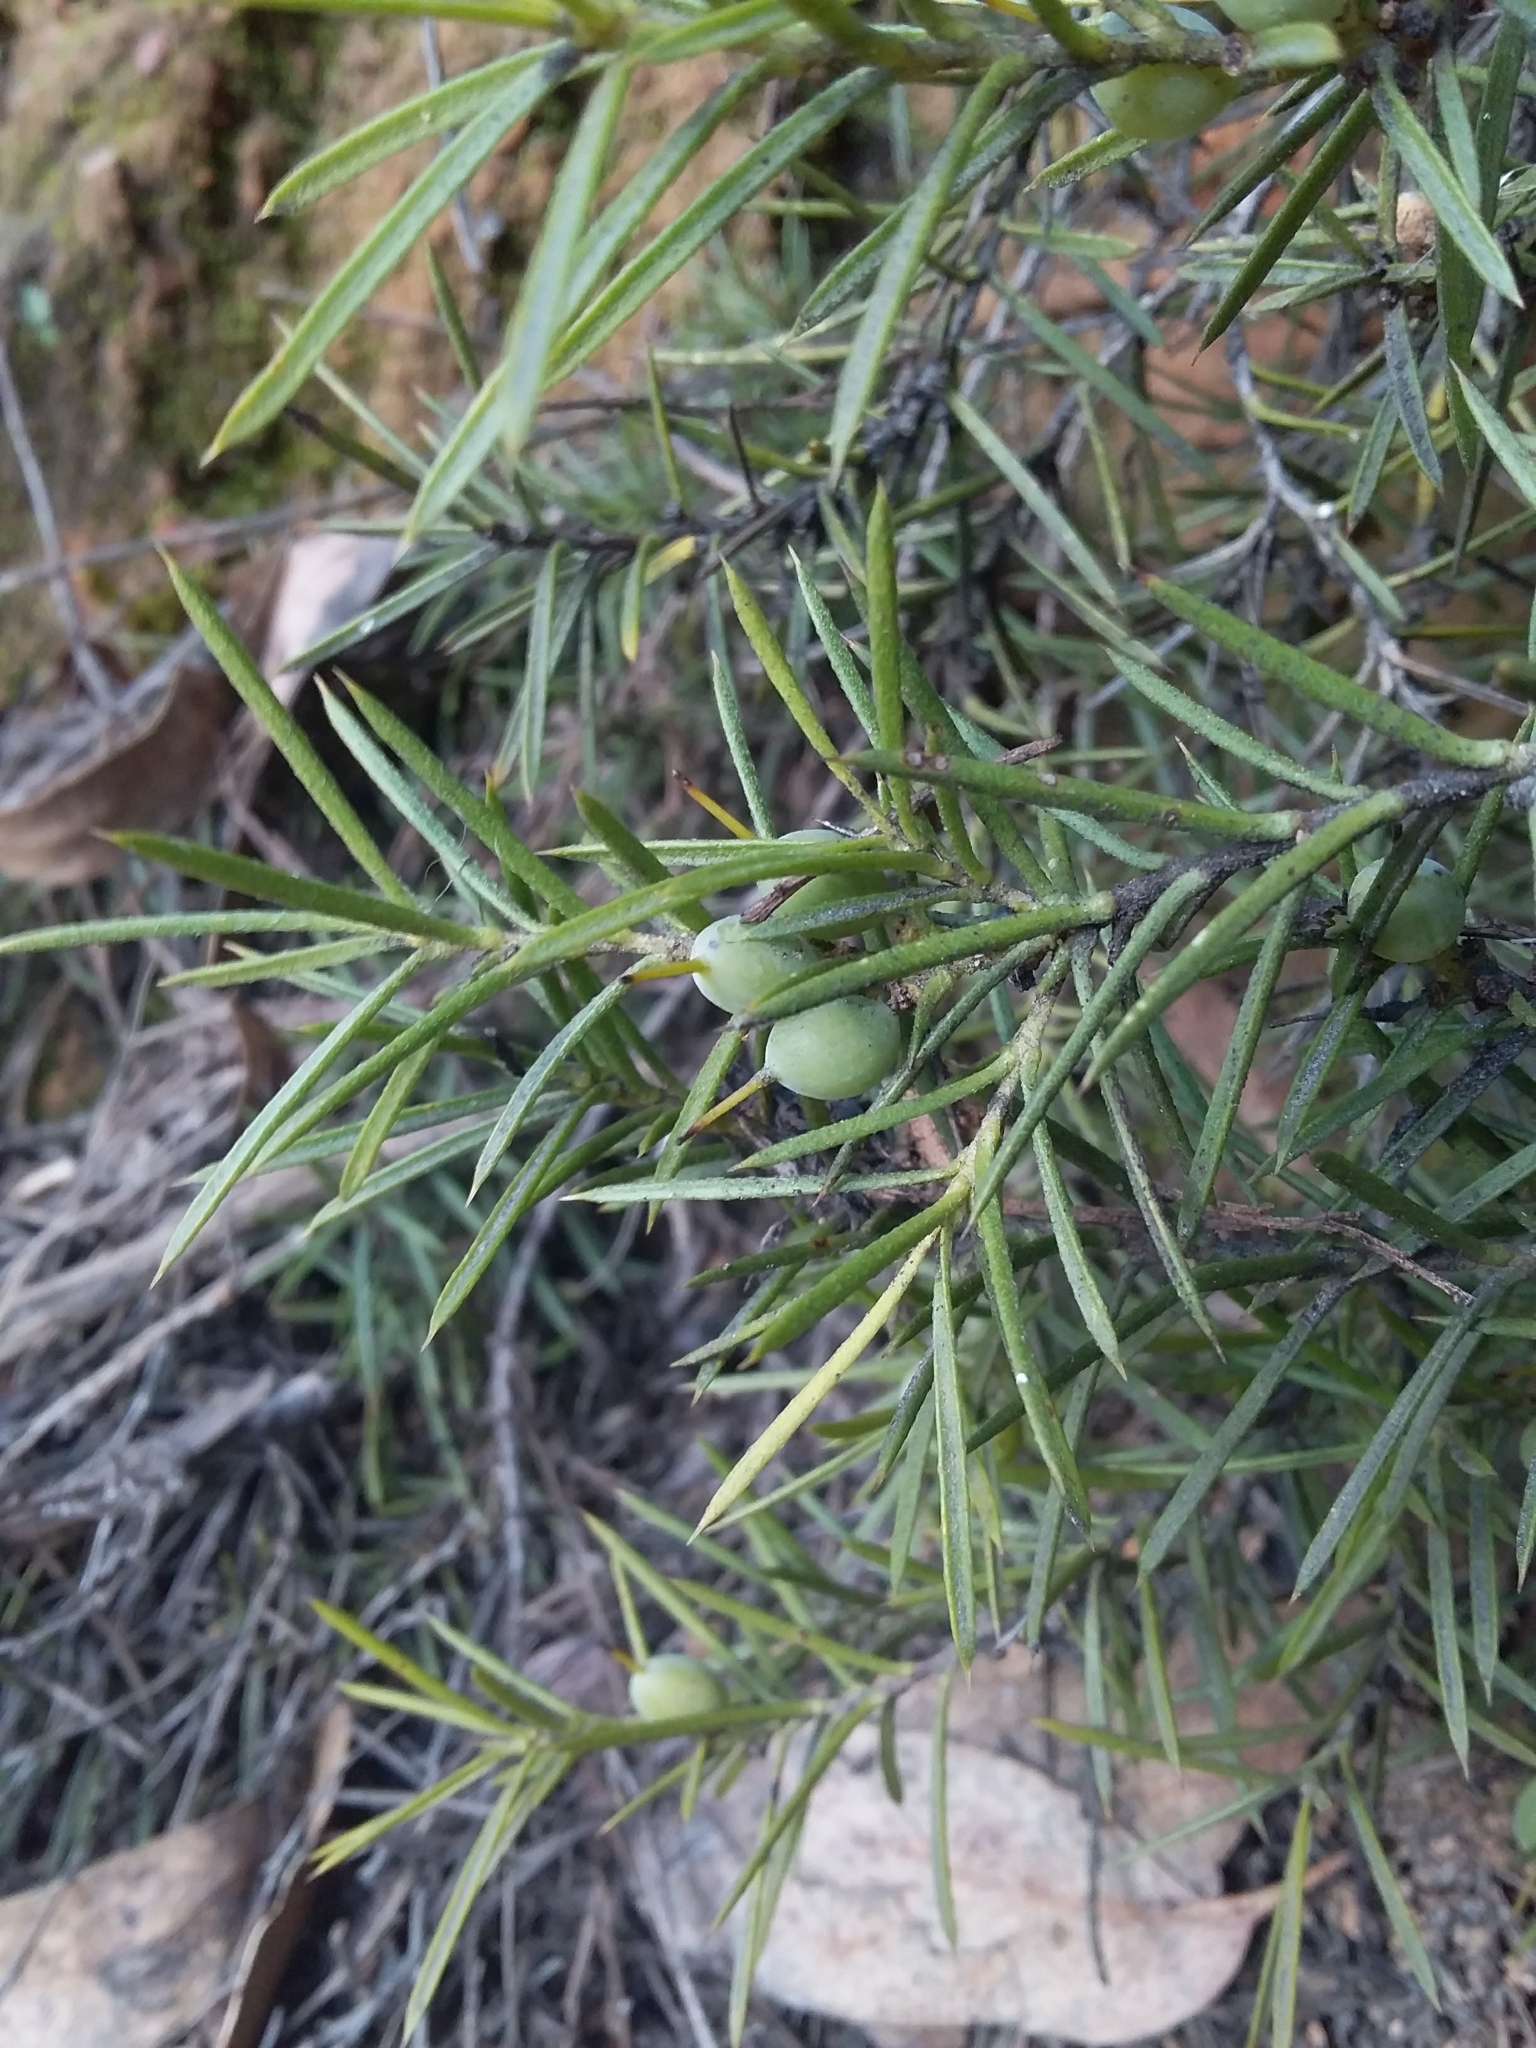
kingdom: Plantae
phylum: Tracheophyta
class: Magnoliopsida
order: Proteales
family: Proteaceae
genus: Persoonia
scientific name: Persoonia juniperina
